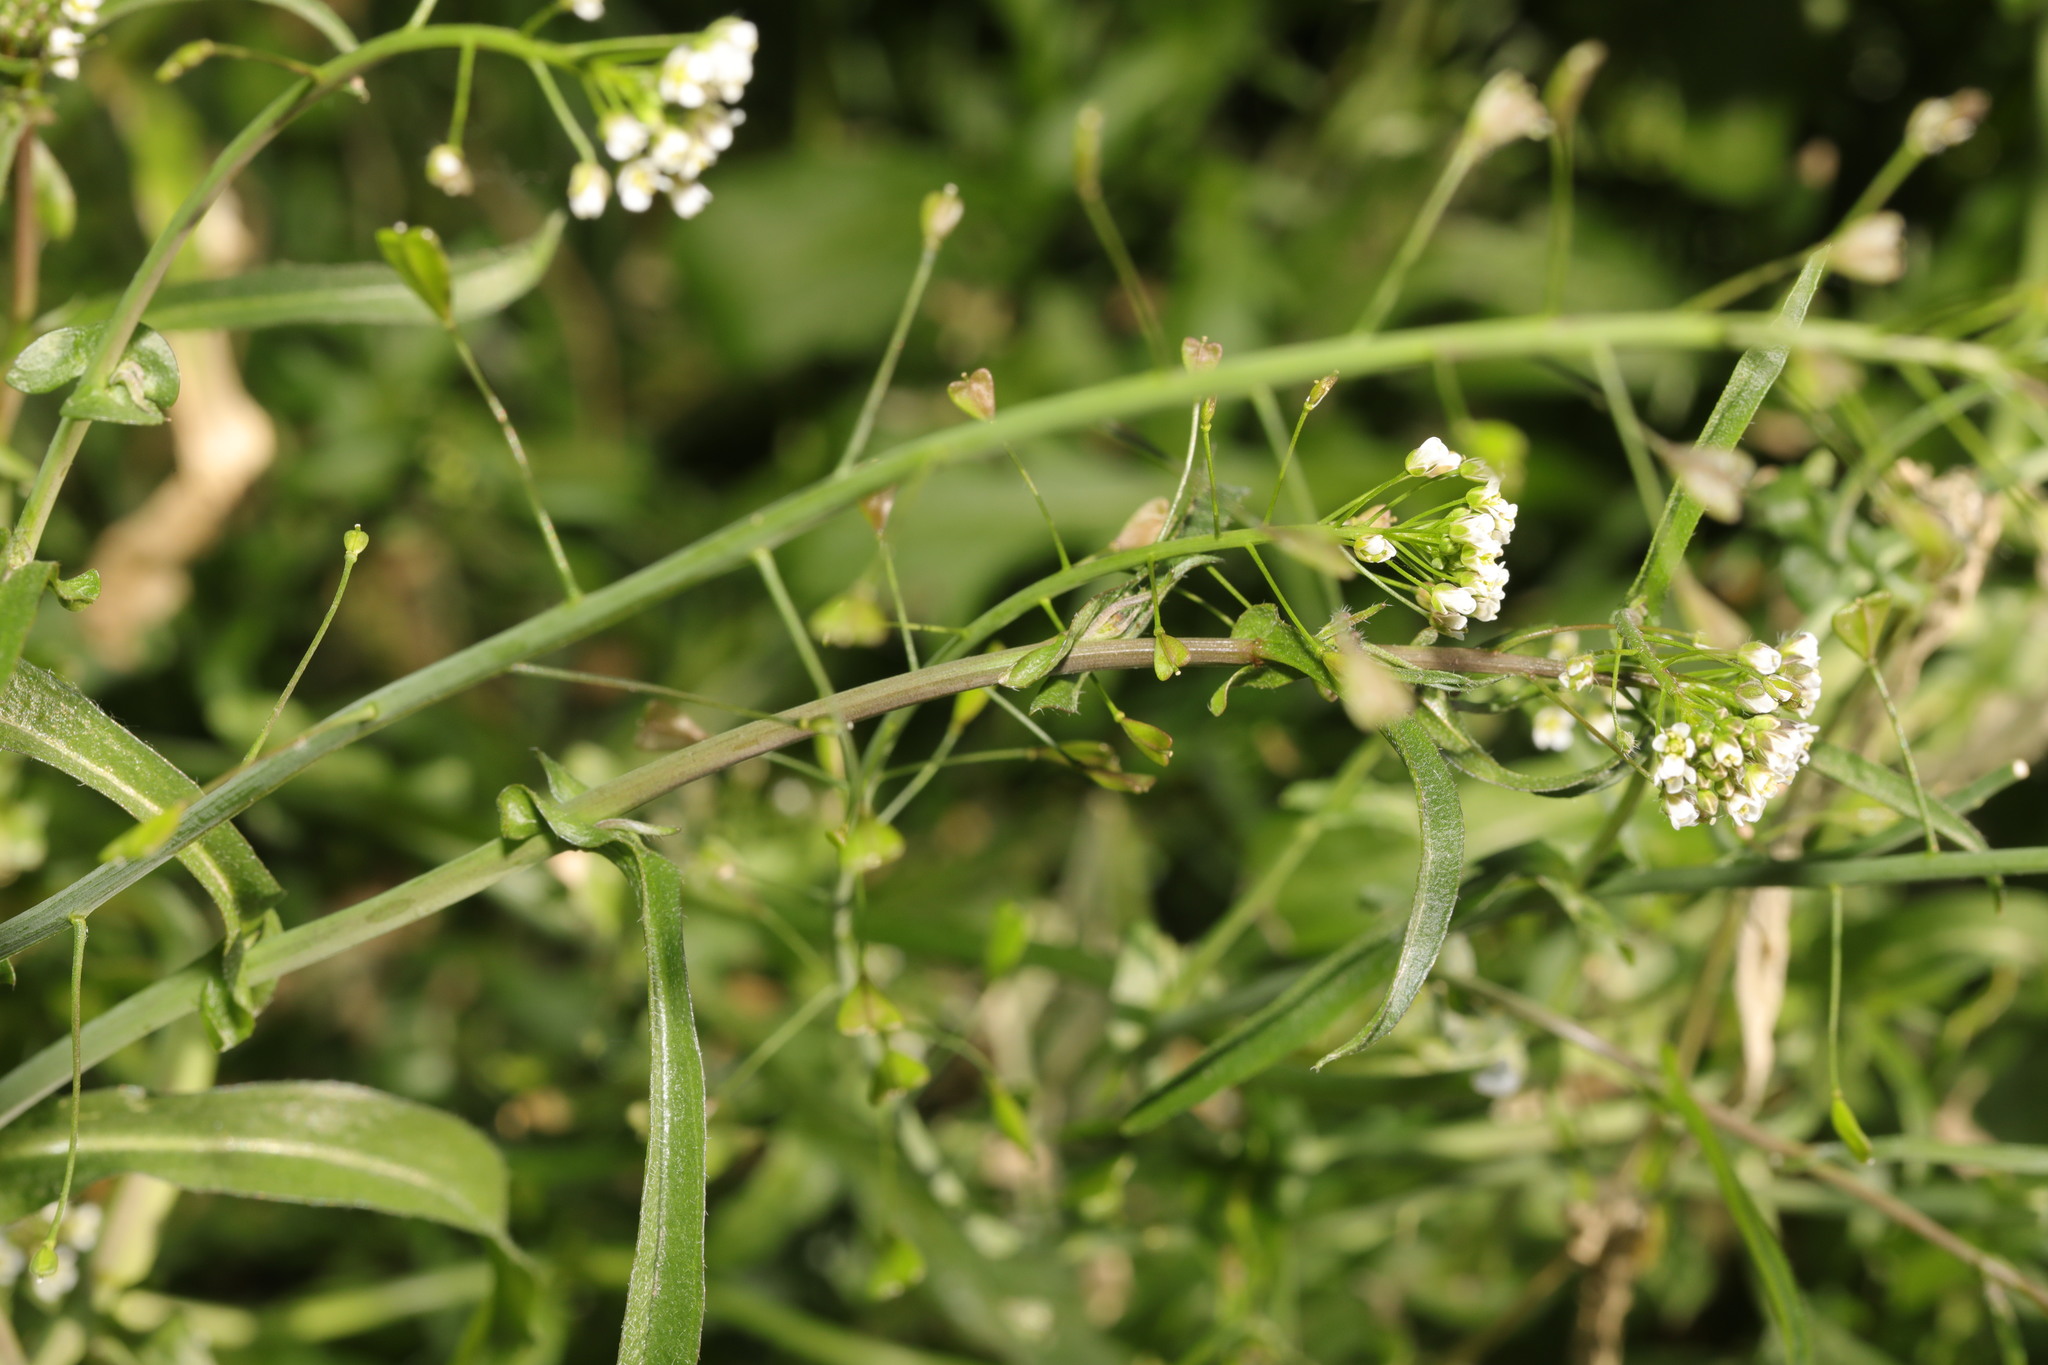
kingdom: Plantae
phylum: Tracheophyta
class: Magnoliopsida
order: Brassicales
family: Brassicaceae
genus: Capsella
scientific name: Capsella bursa-pastoris
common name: Shepherd's purse
